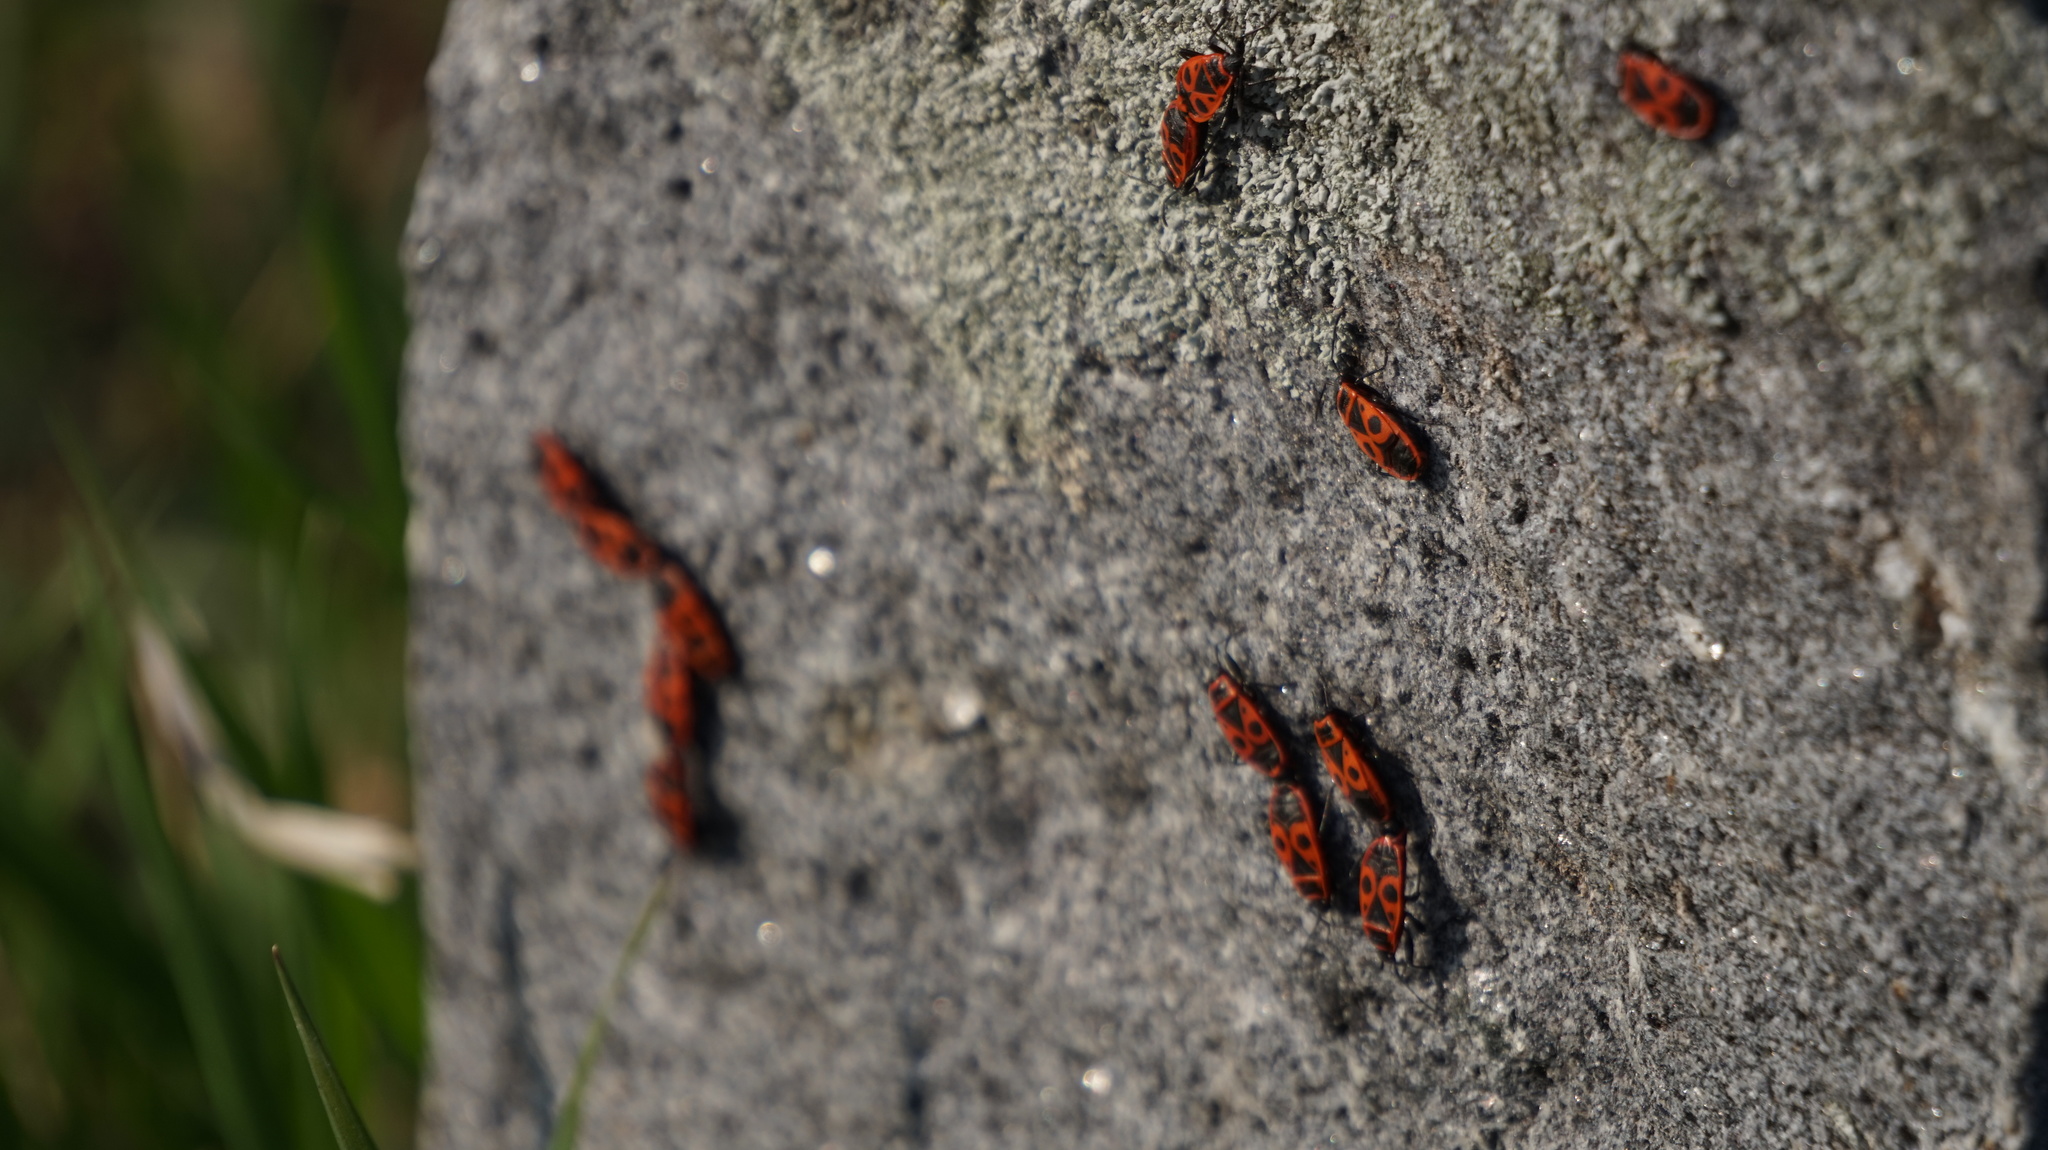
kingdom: Animalia
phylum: Arthropoda
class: Insecta
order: Hemiptera
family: Pyrrhocoridae
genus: Pyrrhocoris
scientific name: Pyrrhocoris apterus
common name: Firebug
